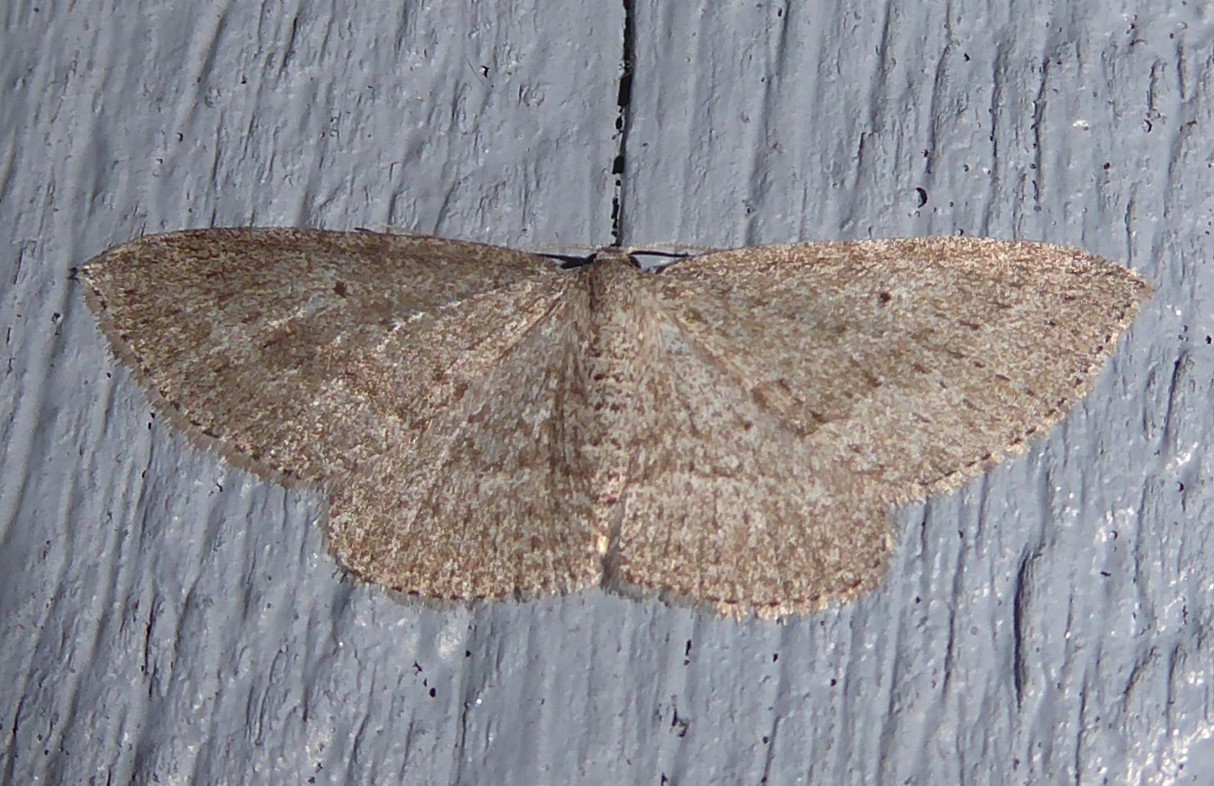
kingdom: Animalia
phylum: Arthropoda
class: Insecta
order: Lepidoptera
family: Geometridae
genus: Poecilasthena
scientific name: Poecilasthena schistaria
